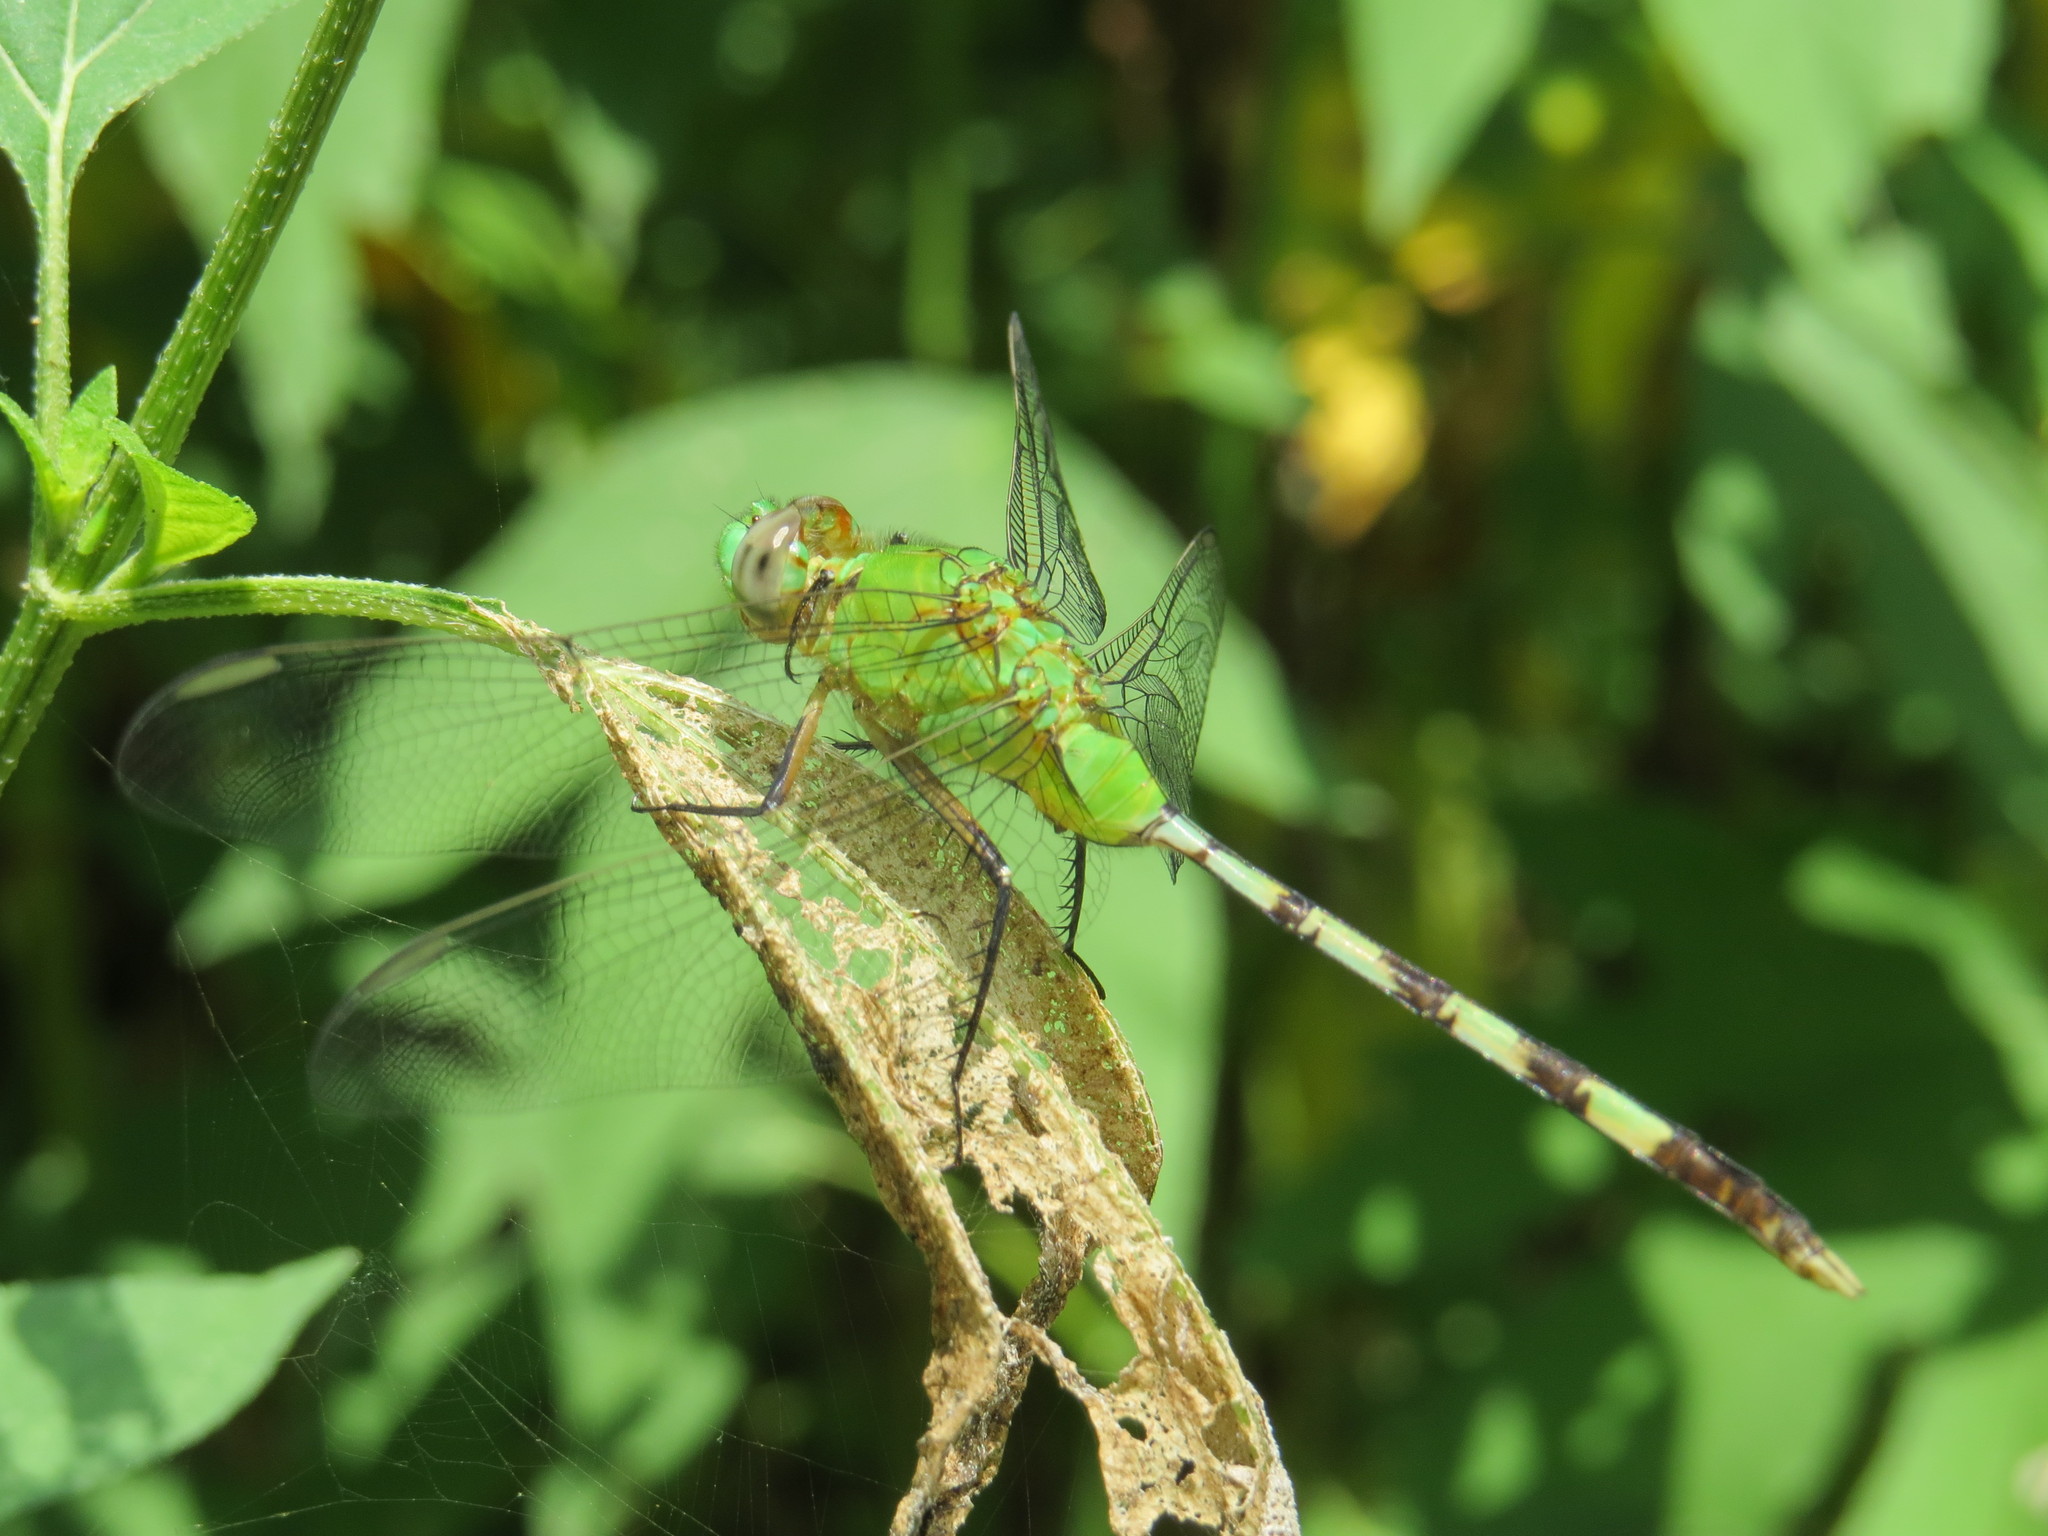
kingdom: Animalia
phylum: Arthropoda
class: Insecta
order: Odonata
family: Libellulidae
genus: Erythemis
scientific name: Erythemis vesiculosa
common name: Great pondhawk
